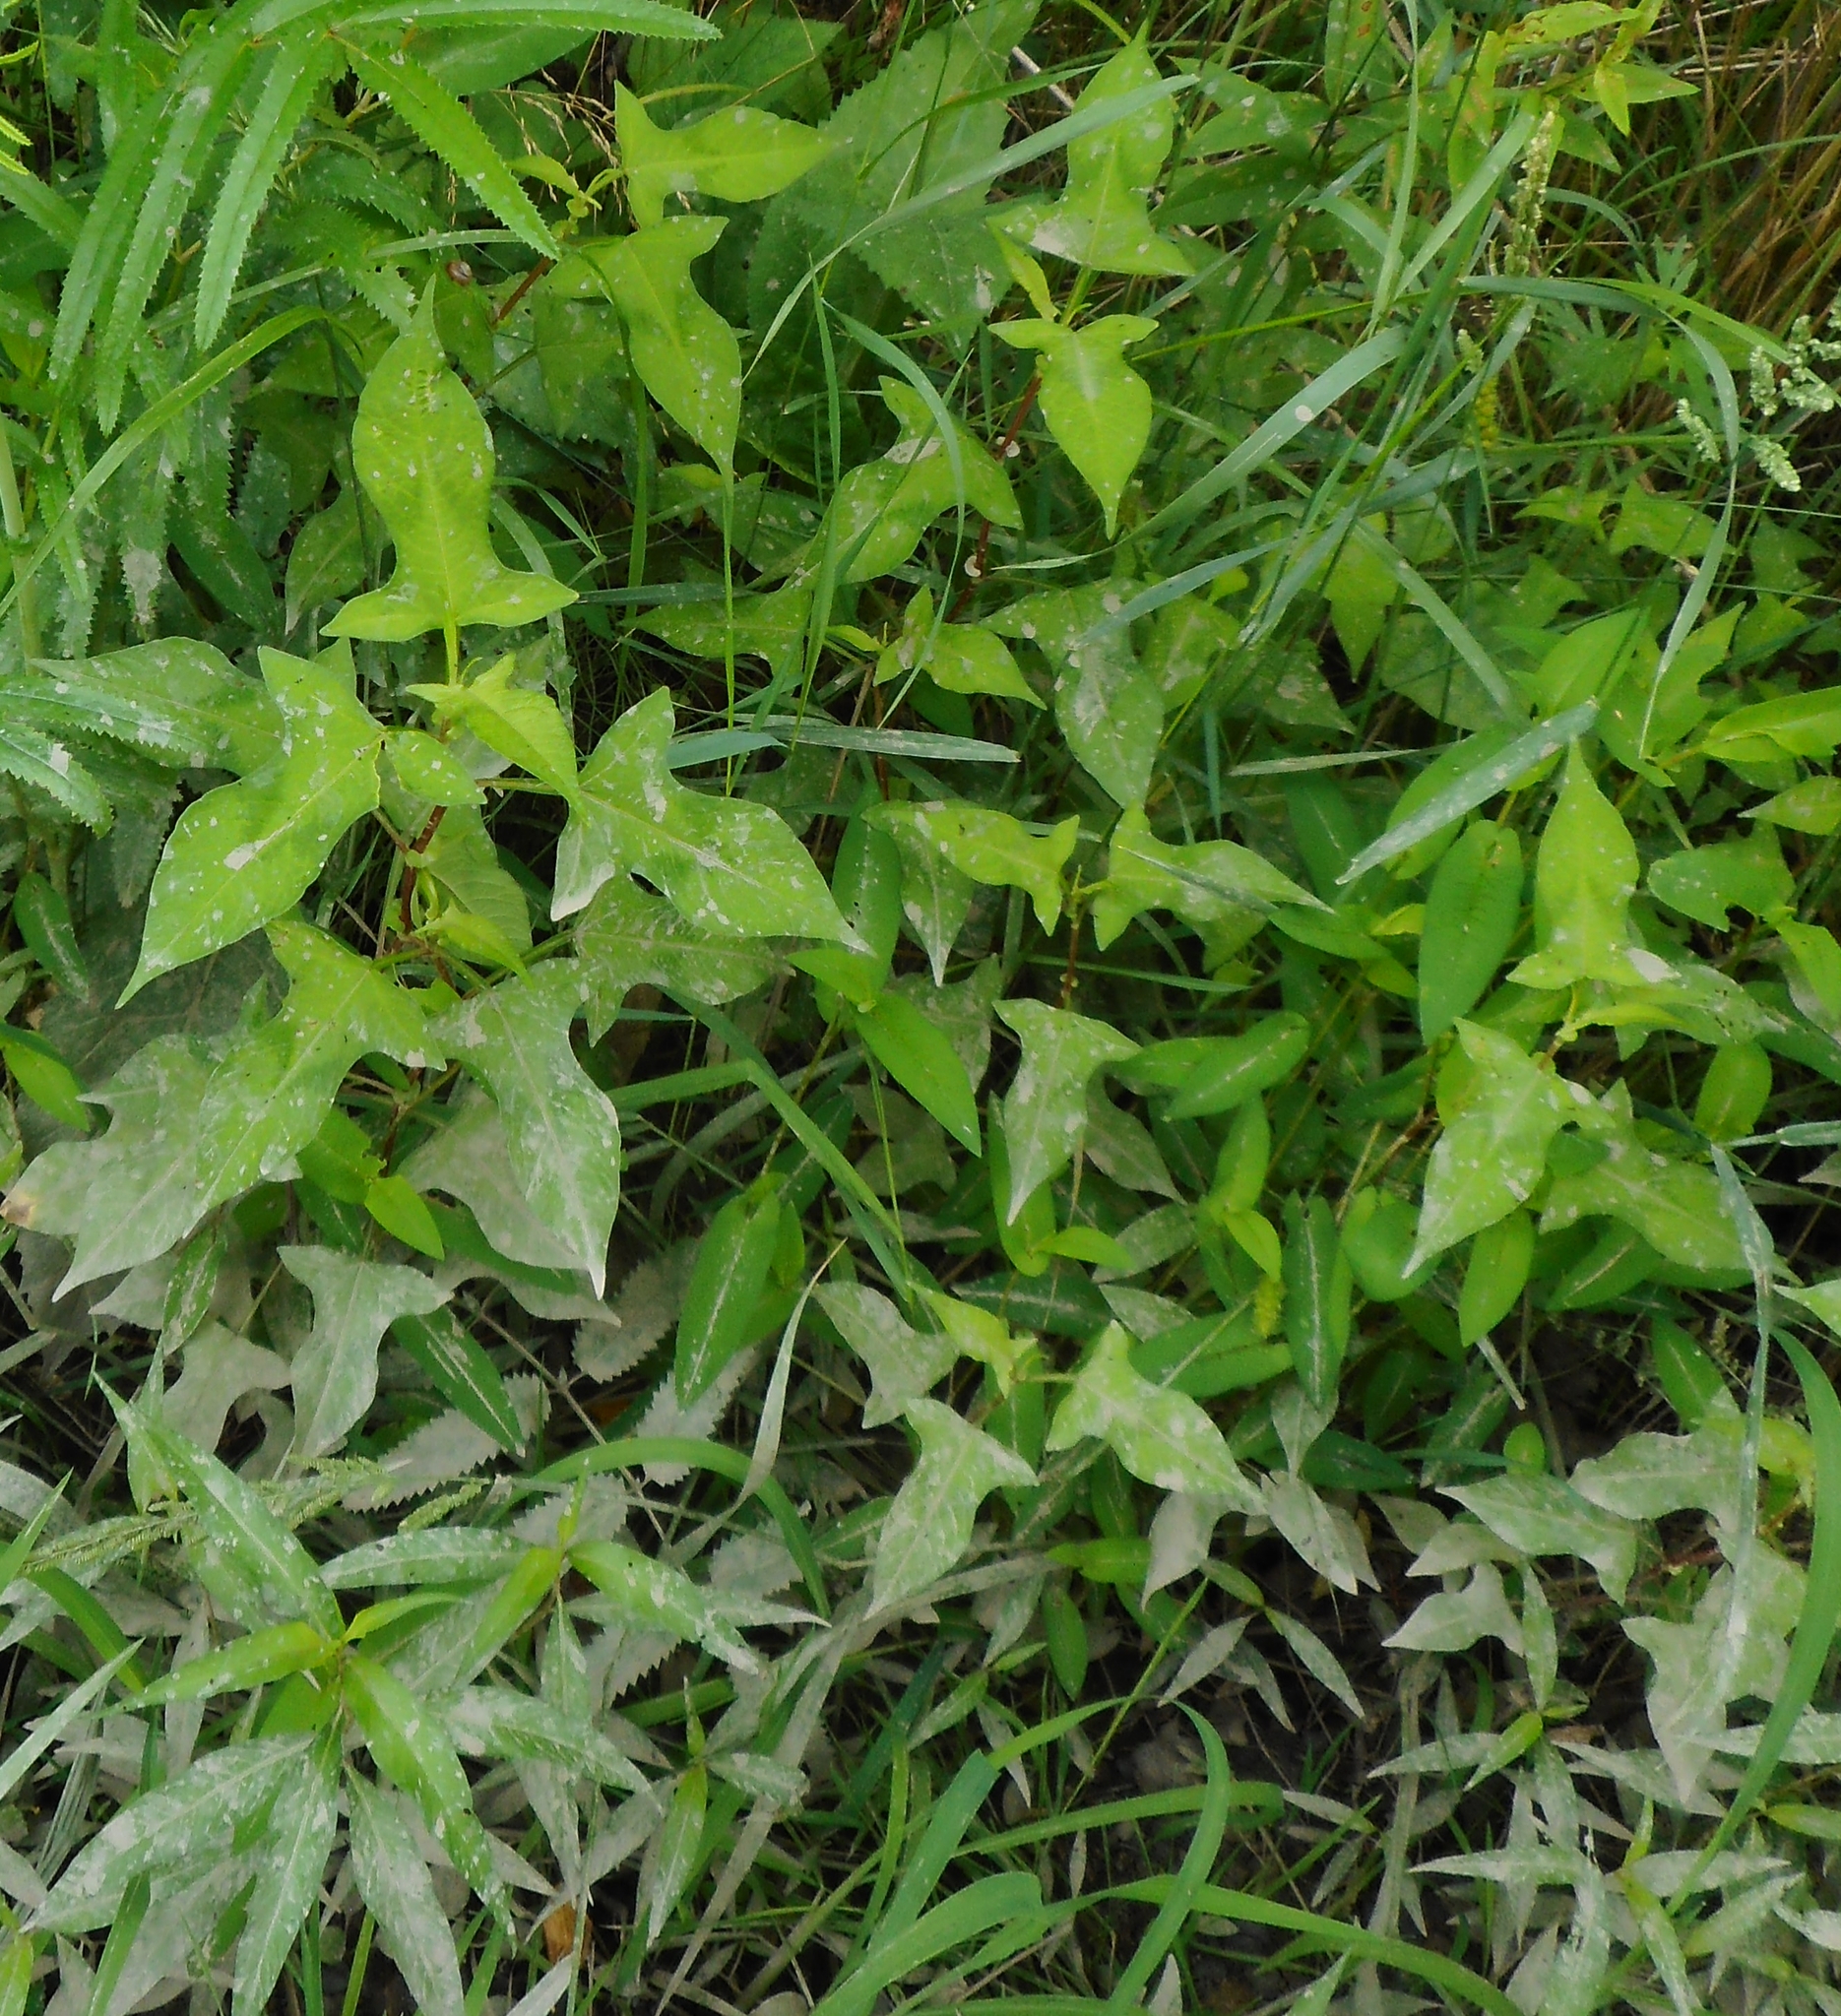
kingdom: Plantae
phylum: Tracheophyta
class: Magnoliopsida
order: Caryophyllales
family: Polygonaceae
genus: Persicaria
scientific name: Persicaria thunbergii
